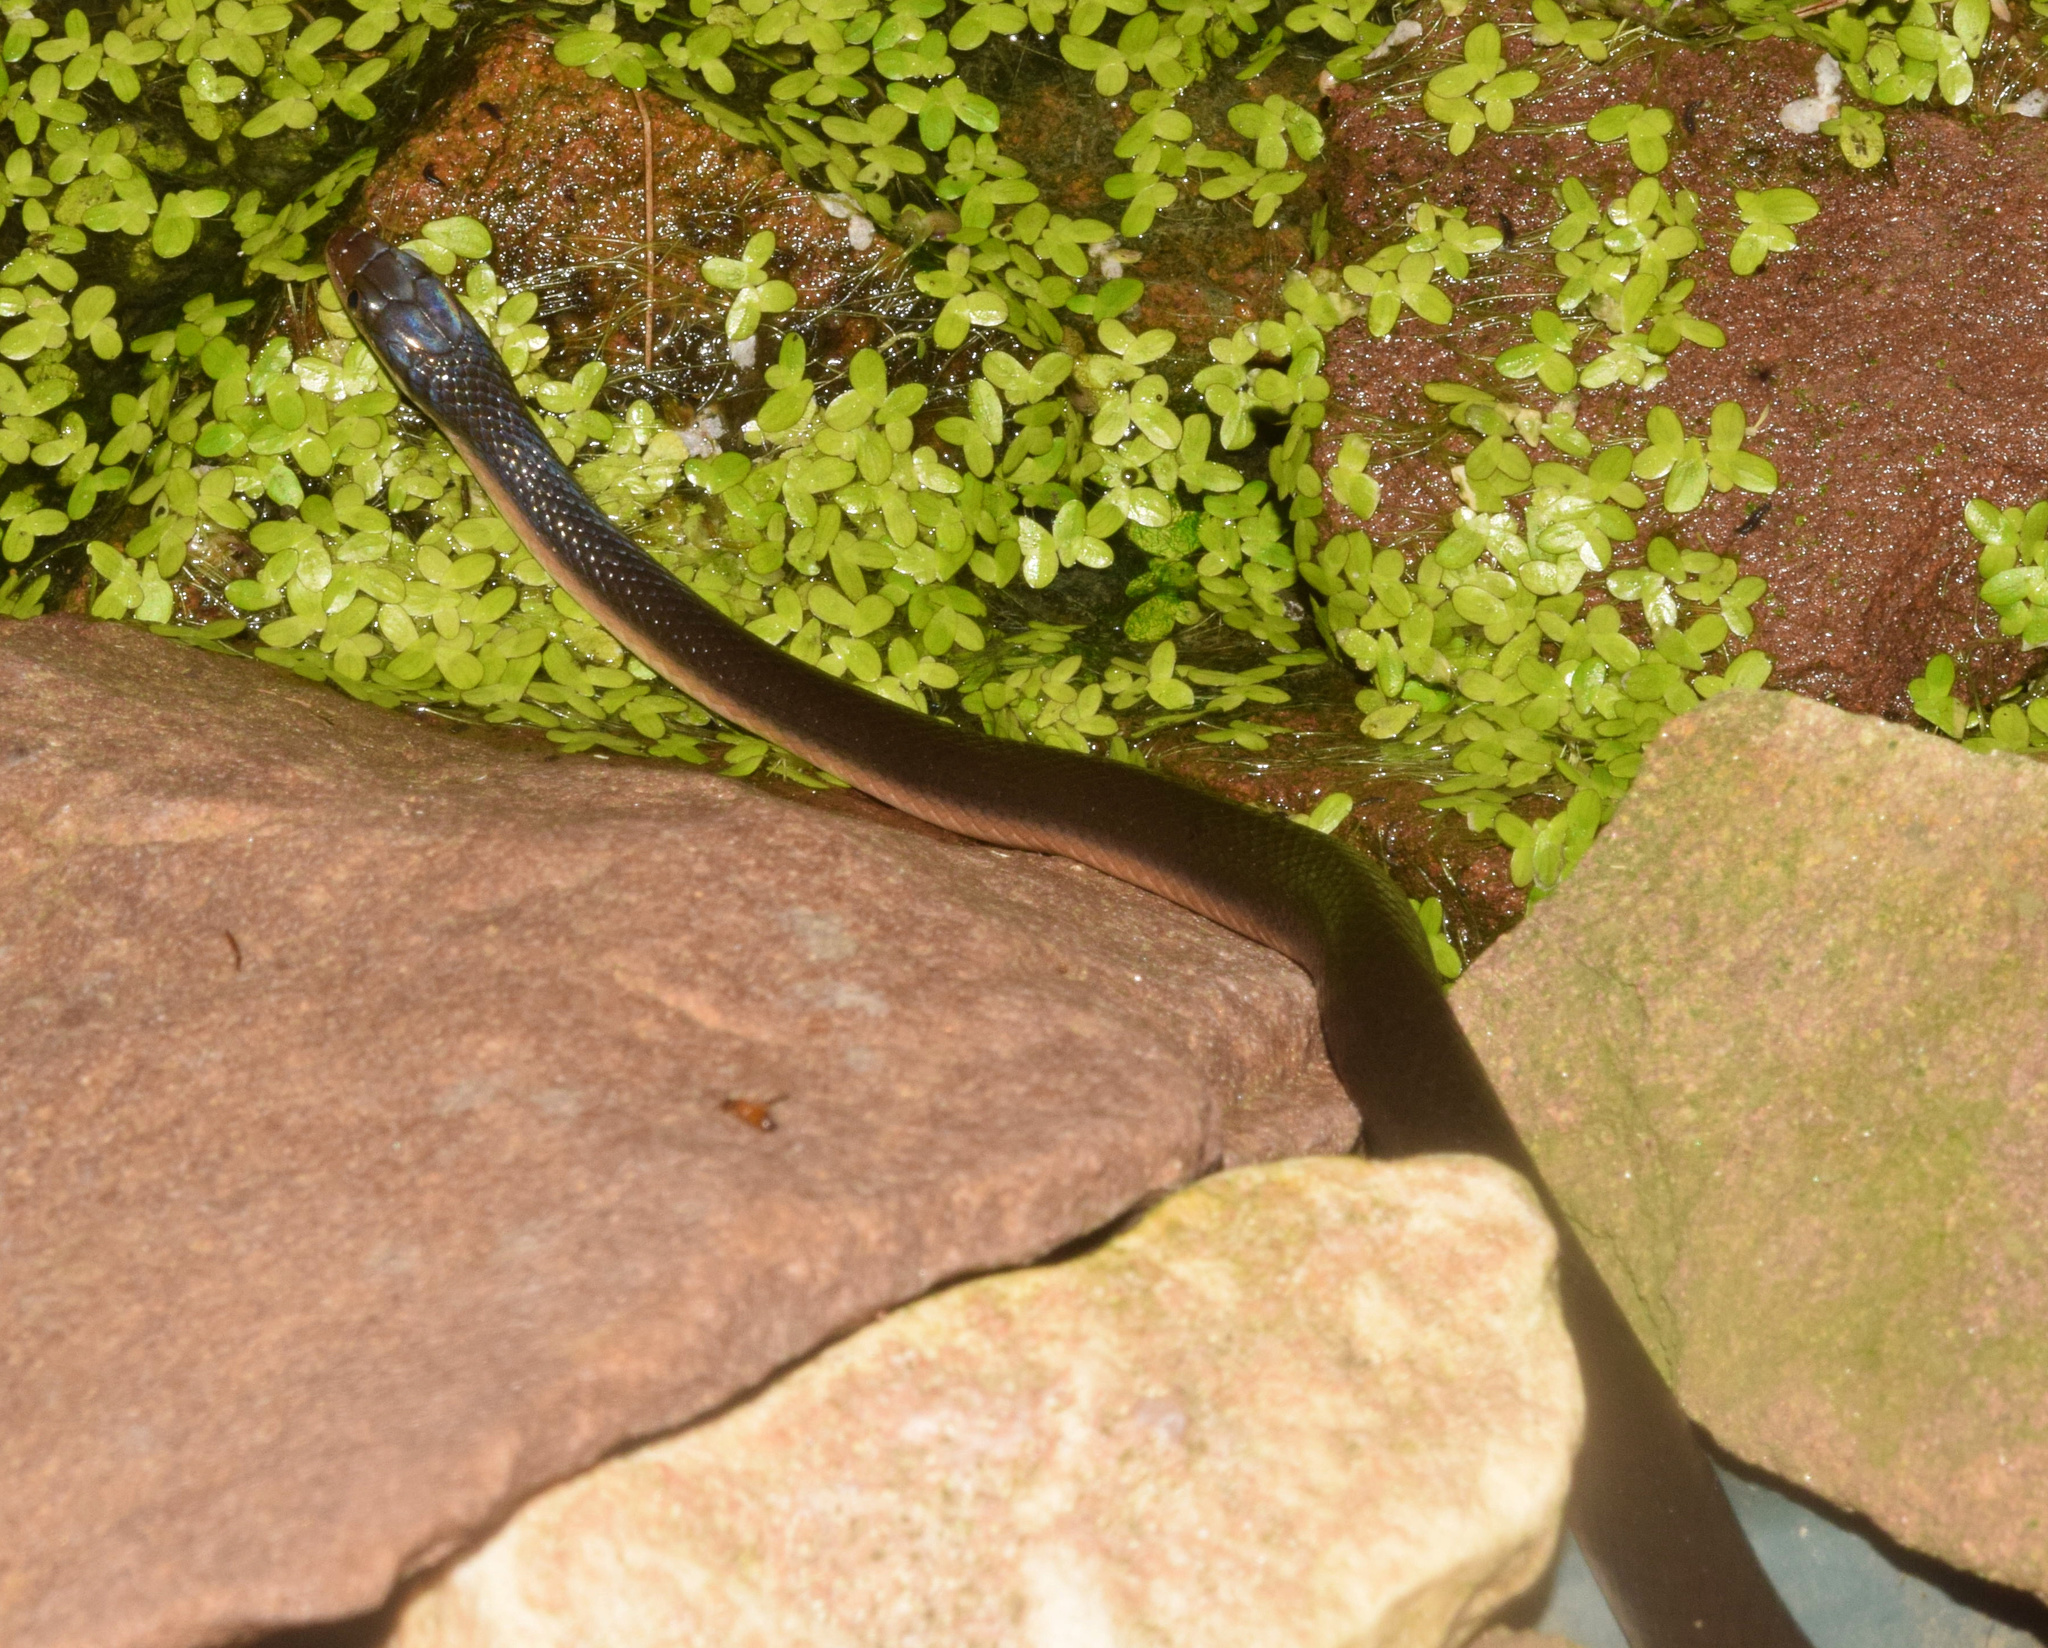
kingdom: Animalia
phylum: Chordata
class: Squamata
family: Lamprophiidae
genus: Lycodonomorphus
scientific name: Lycodonomorphus rufulus
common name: Brown water snake
